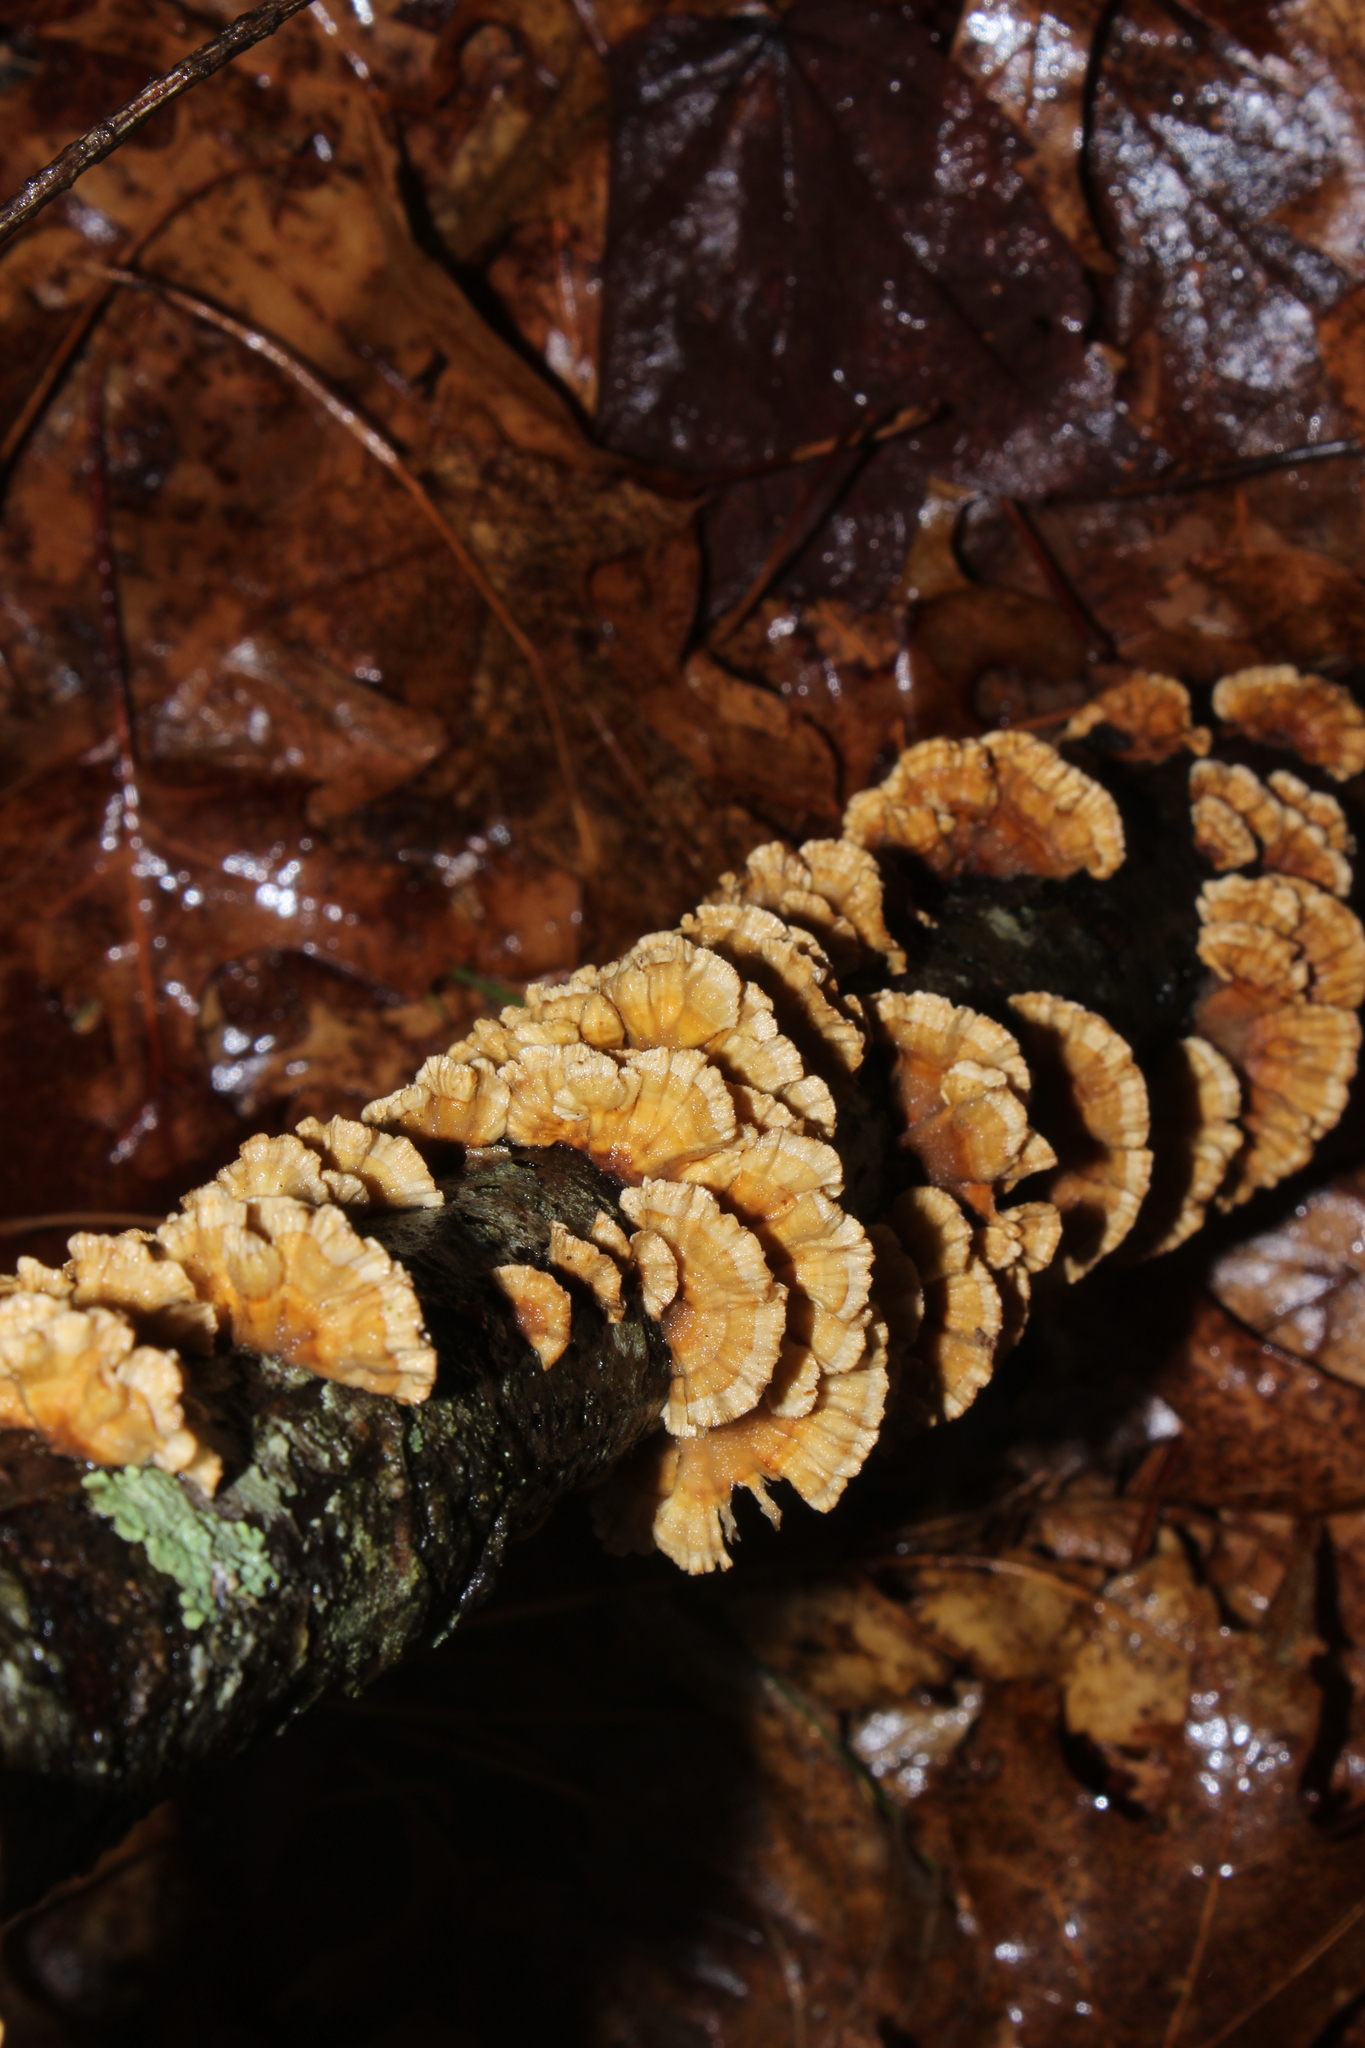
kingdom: Fungi
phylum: Basidiomycota
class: Agaricomycetes
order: Russulales
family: Stereaceae
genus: Stereum
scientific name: Stereum complicatum
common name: Crowded parchment
